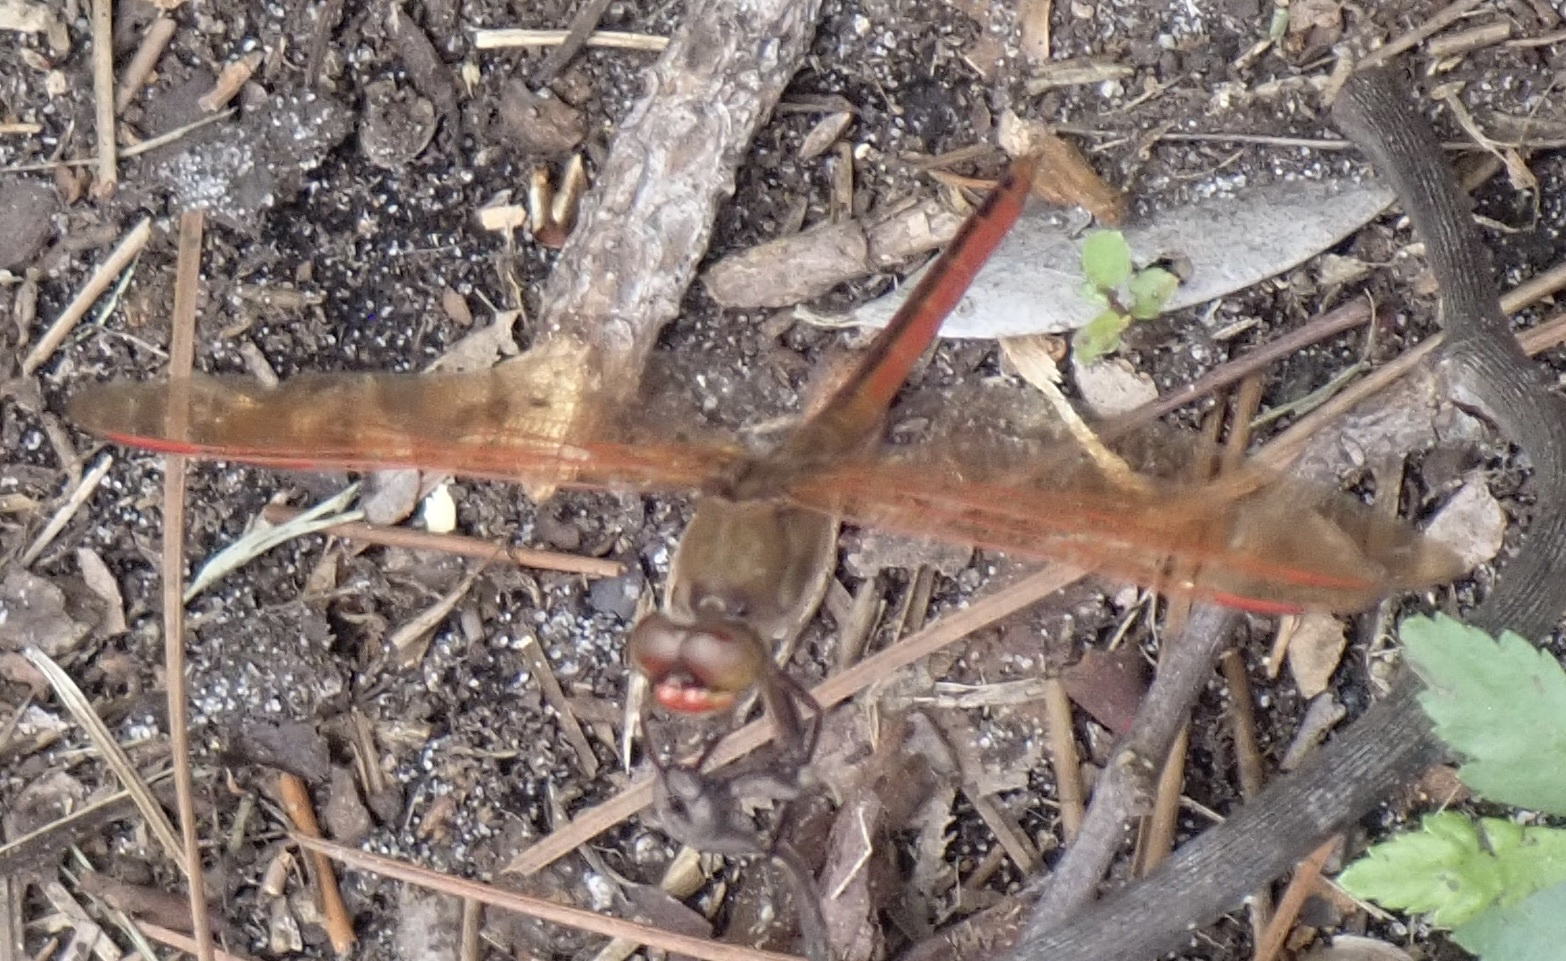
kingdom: Animalia
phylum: Arthropoda
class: Insecta
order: Odonata
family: Libellulidae
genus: Libellula
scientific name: Libellula auripennis
